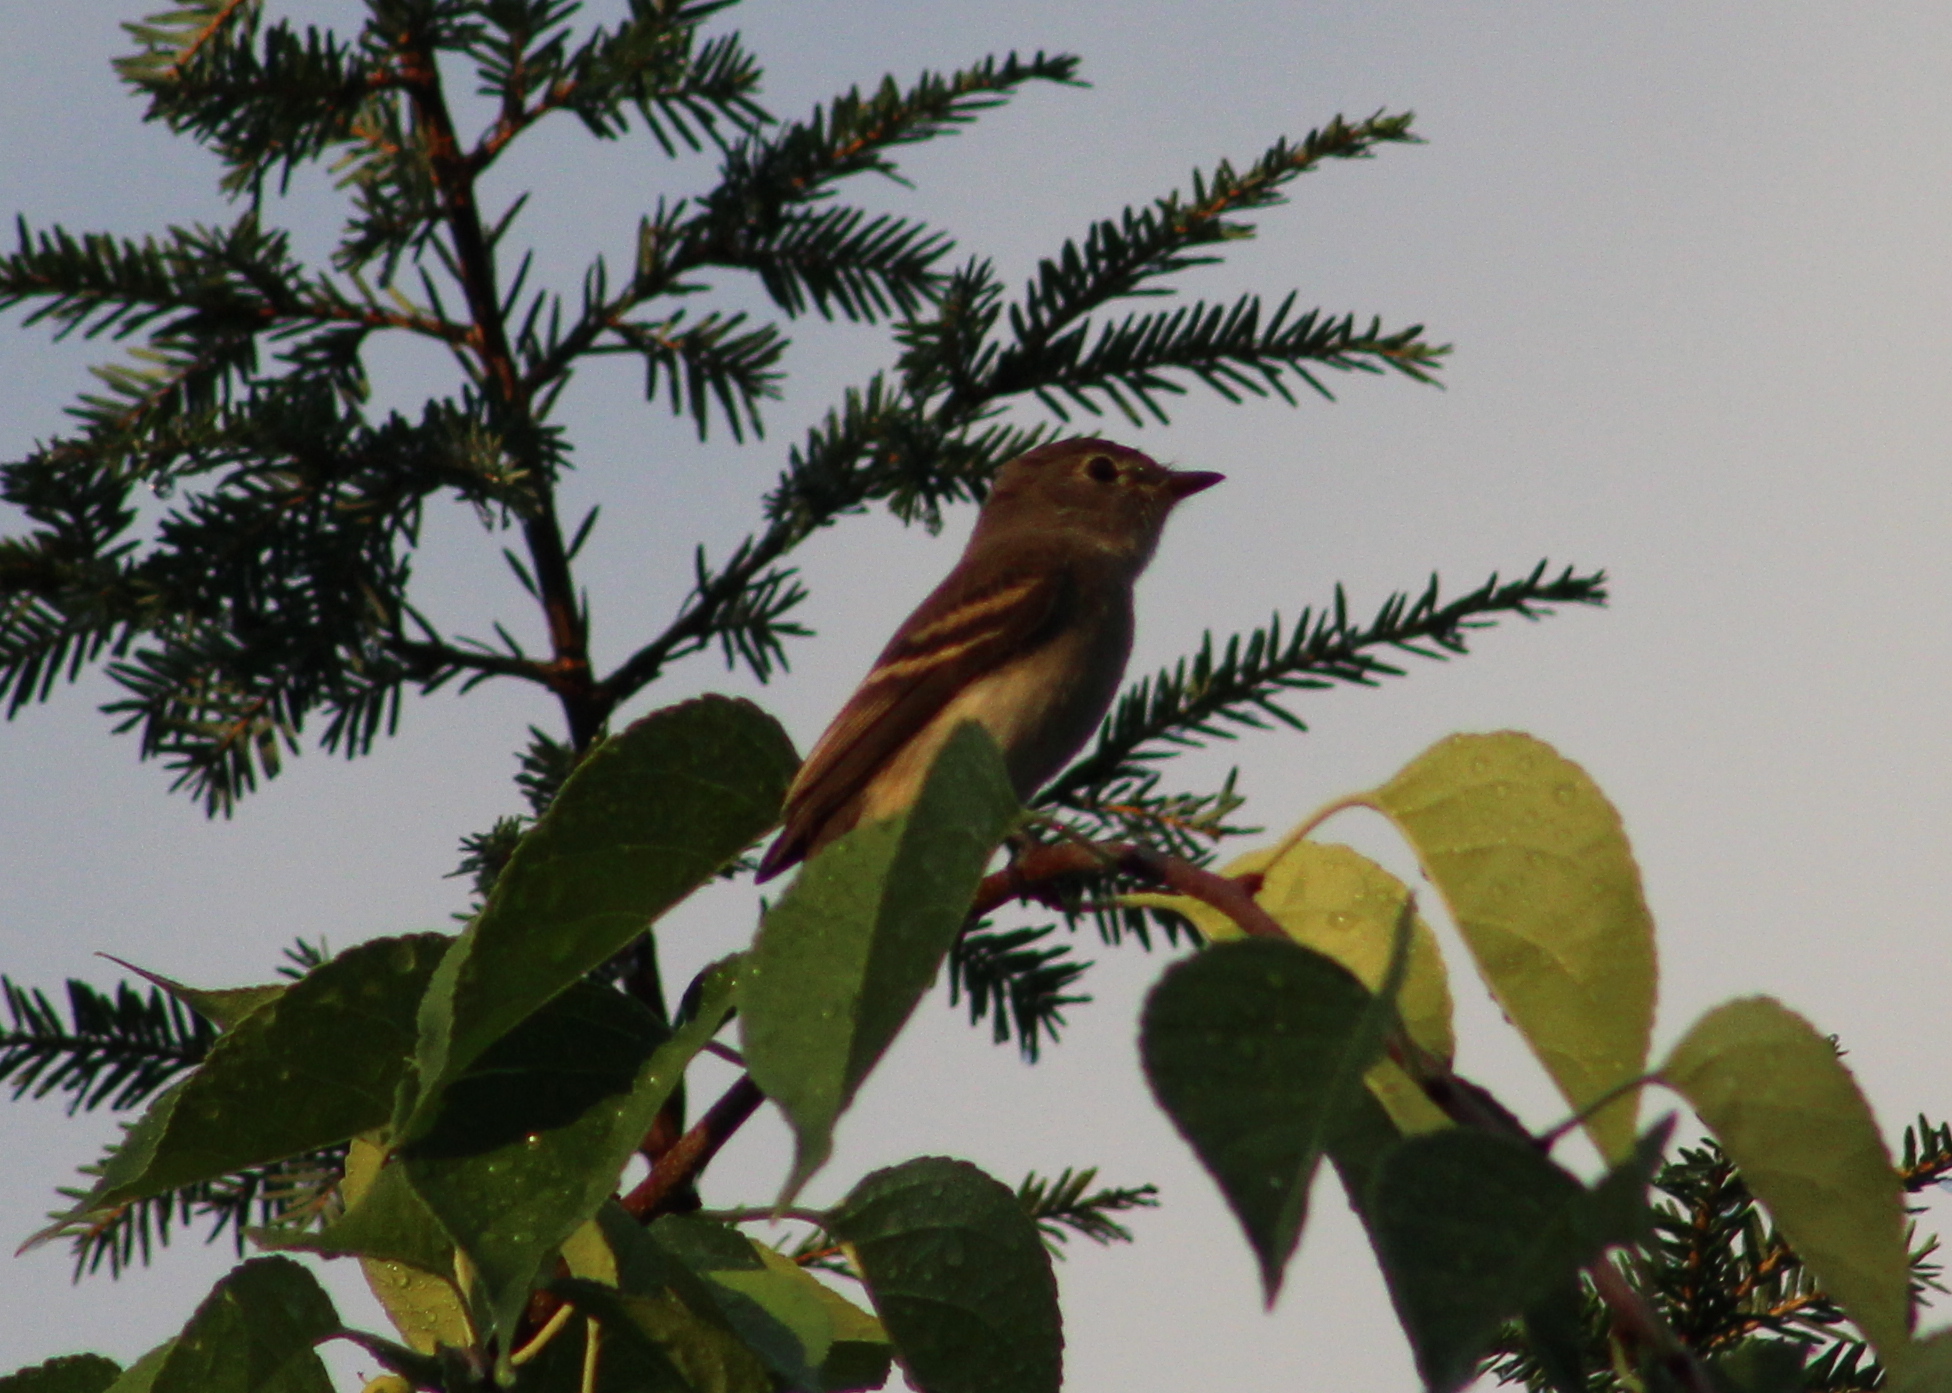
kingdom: Animalia
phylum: Chordata
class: Aves
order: Passeriformes
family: Tyrannidae
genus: Empidonax
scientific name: Empidonax minimus
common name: Least flycatcher
